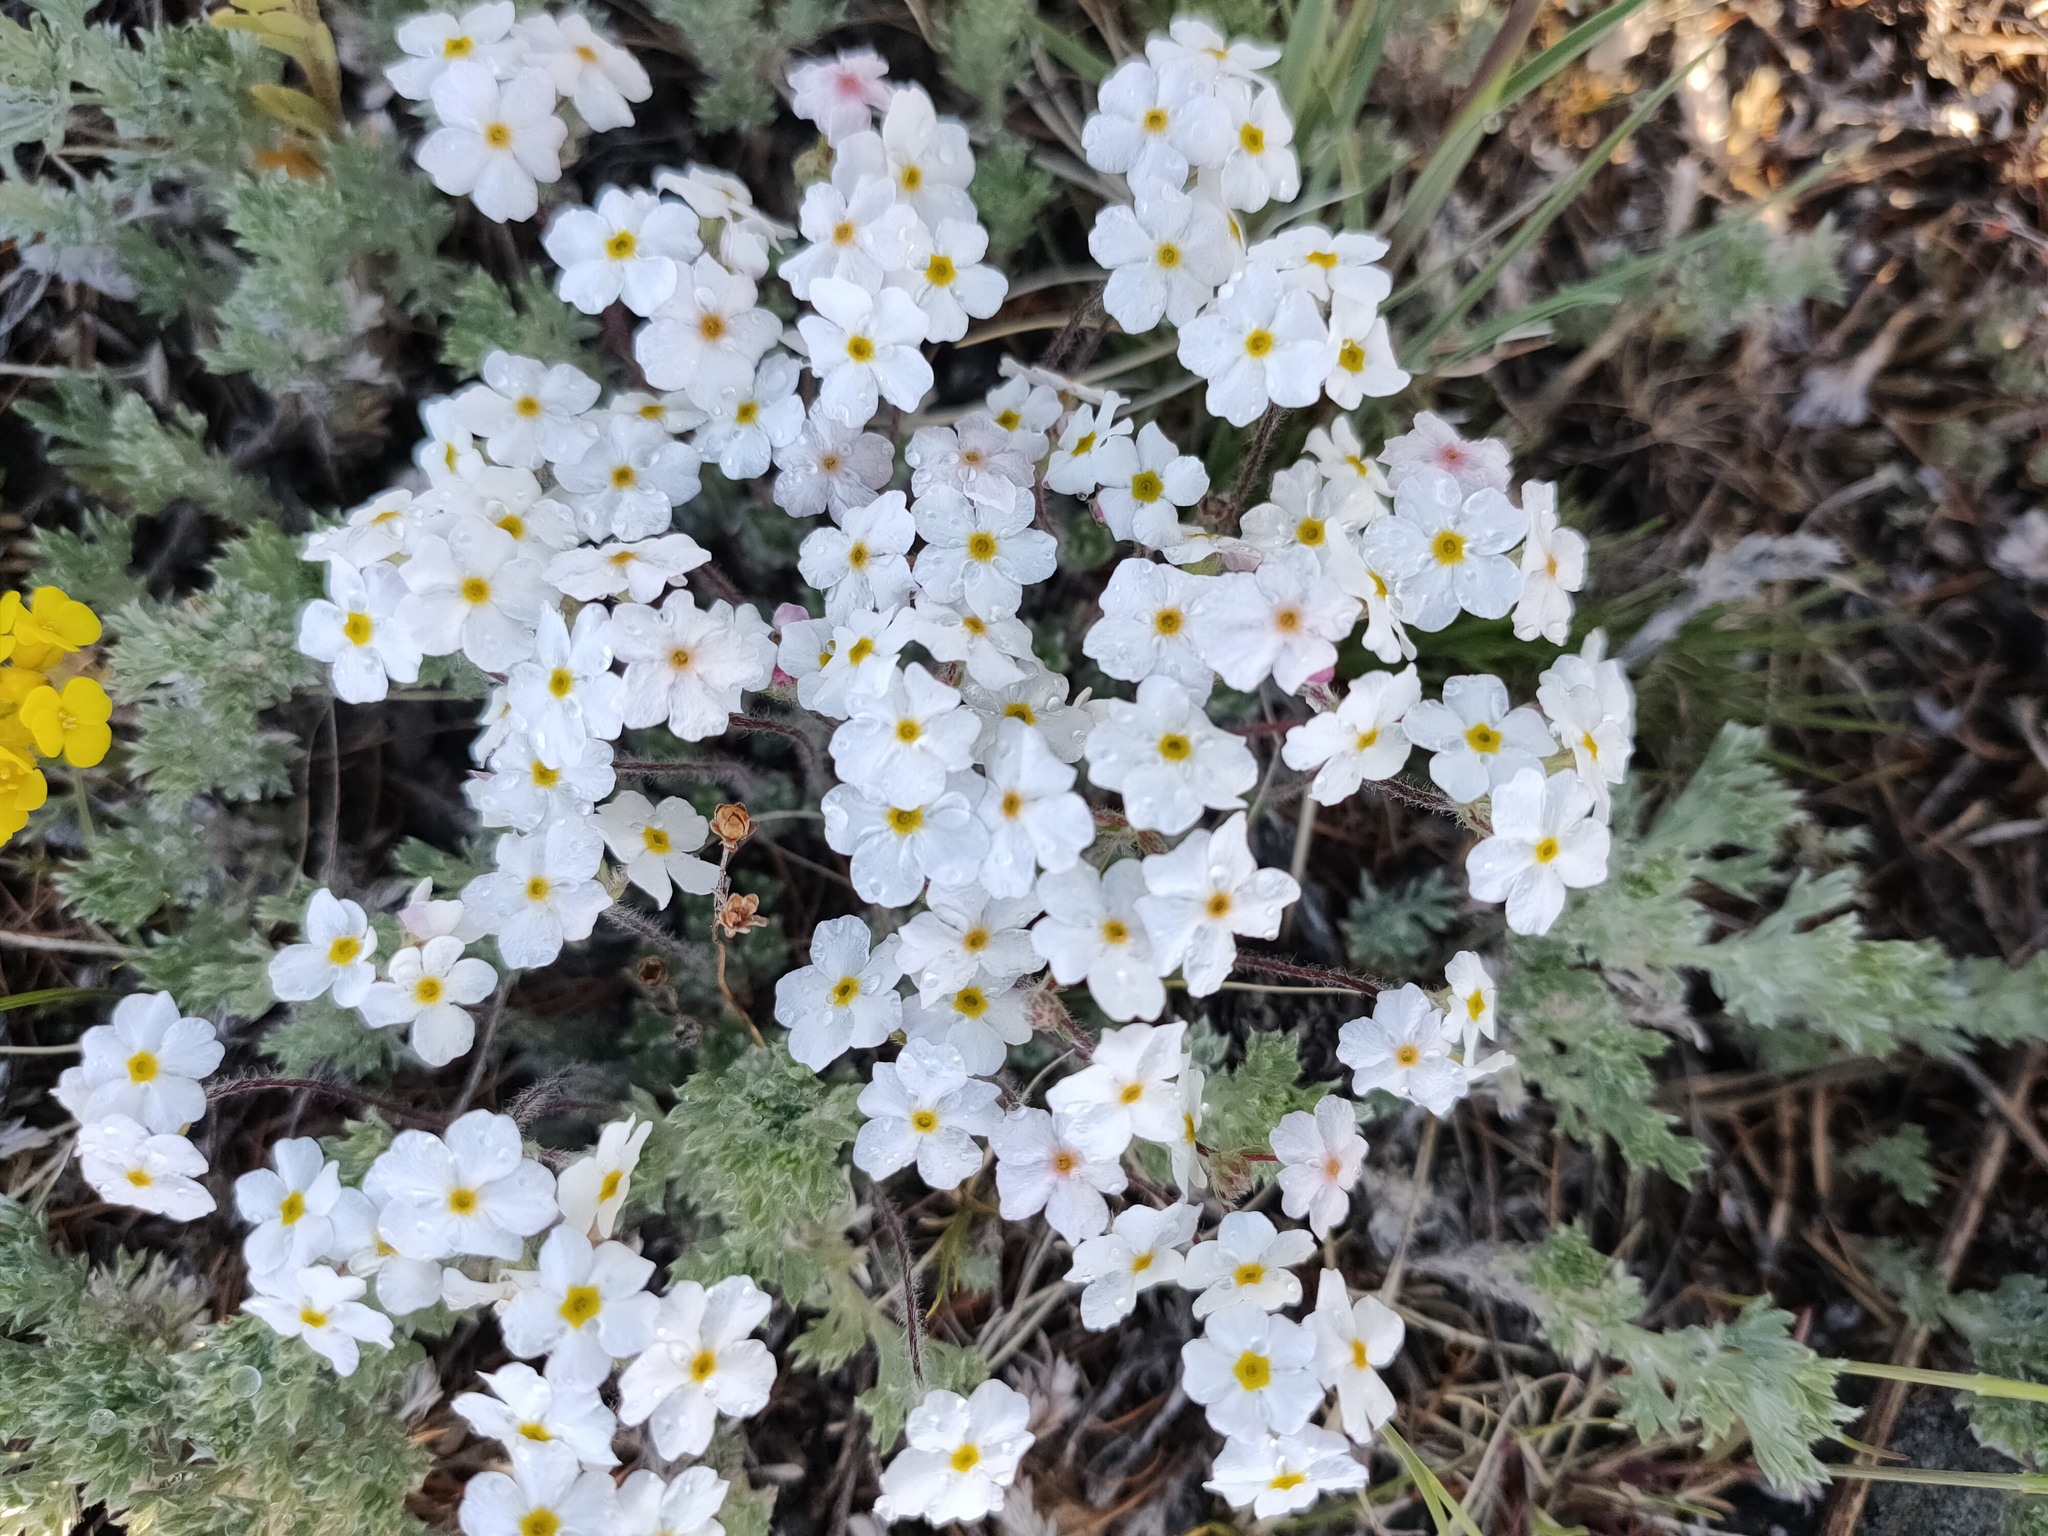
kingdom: Plantae
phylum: Tracheophyta
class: Magnoliopsida
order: Ericales
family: Primulaceae
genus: Androsace
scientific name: Androsace incana
